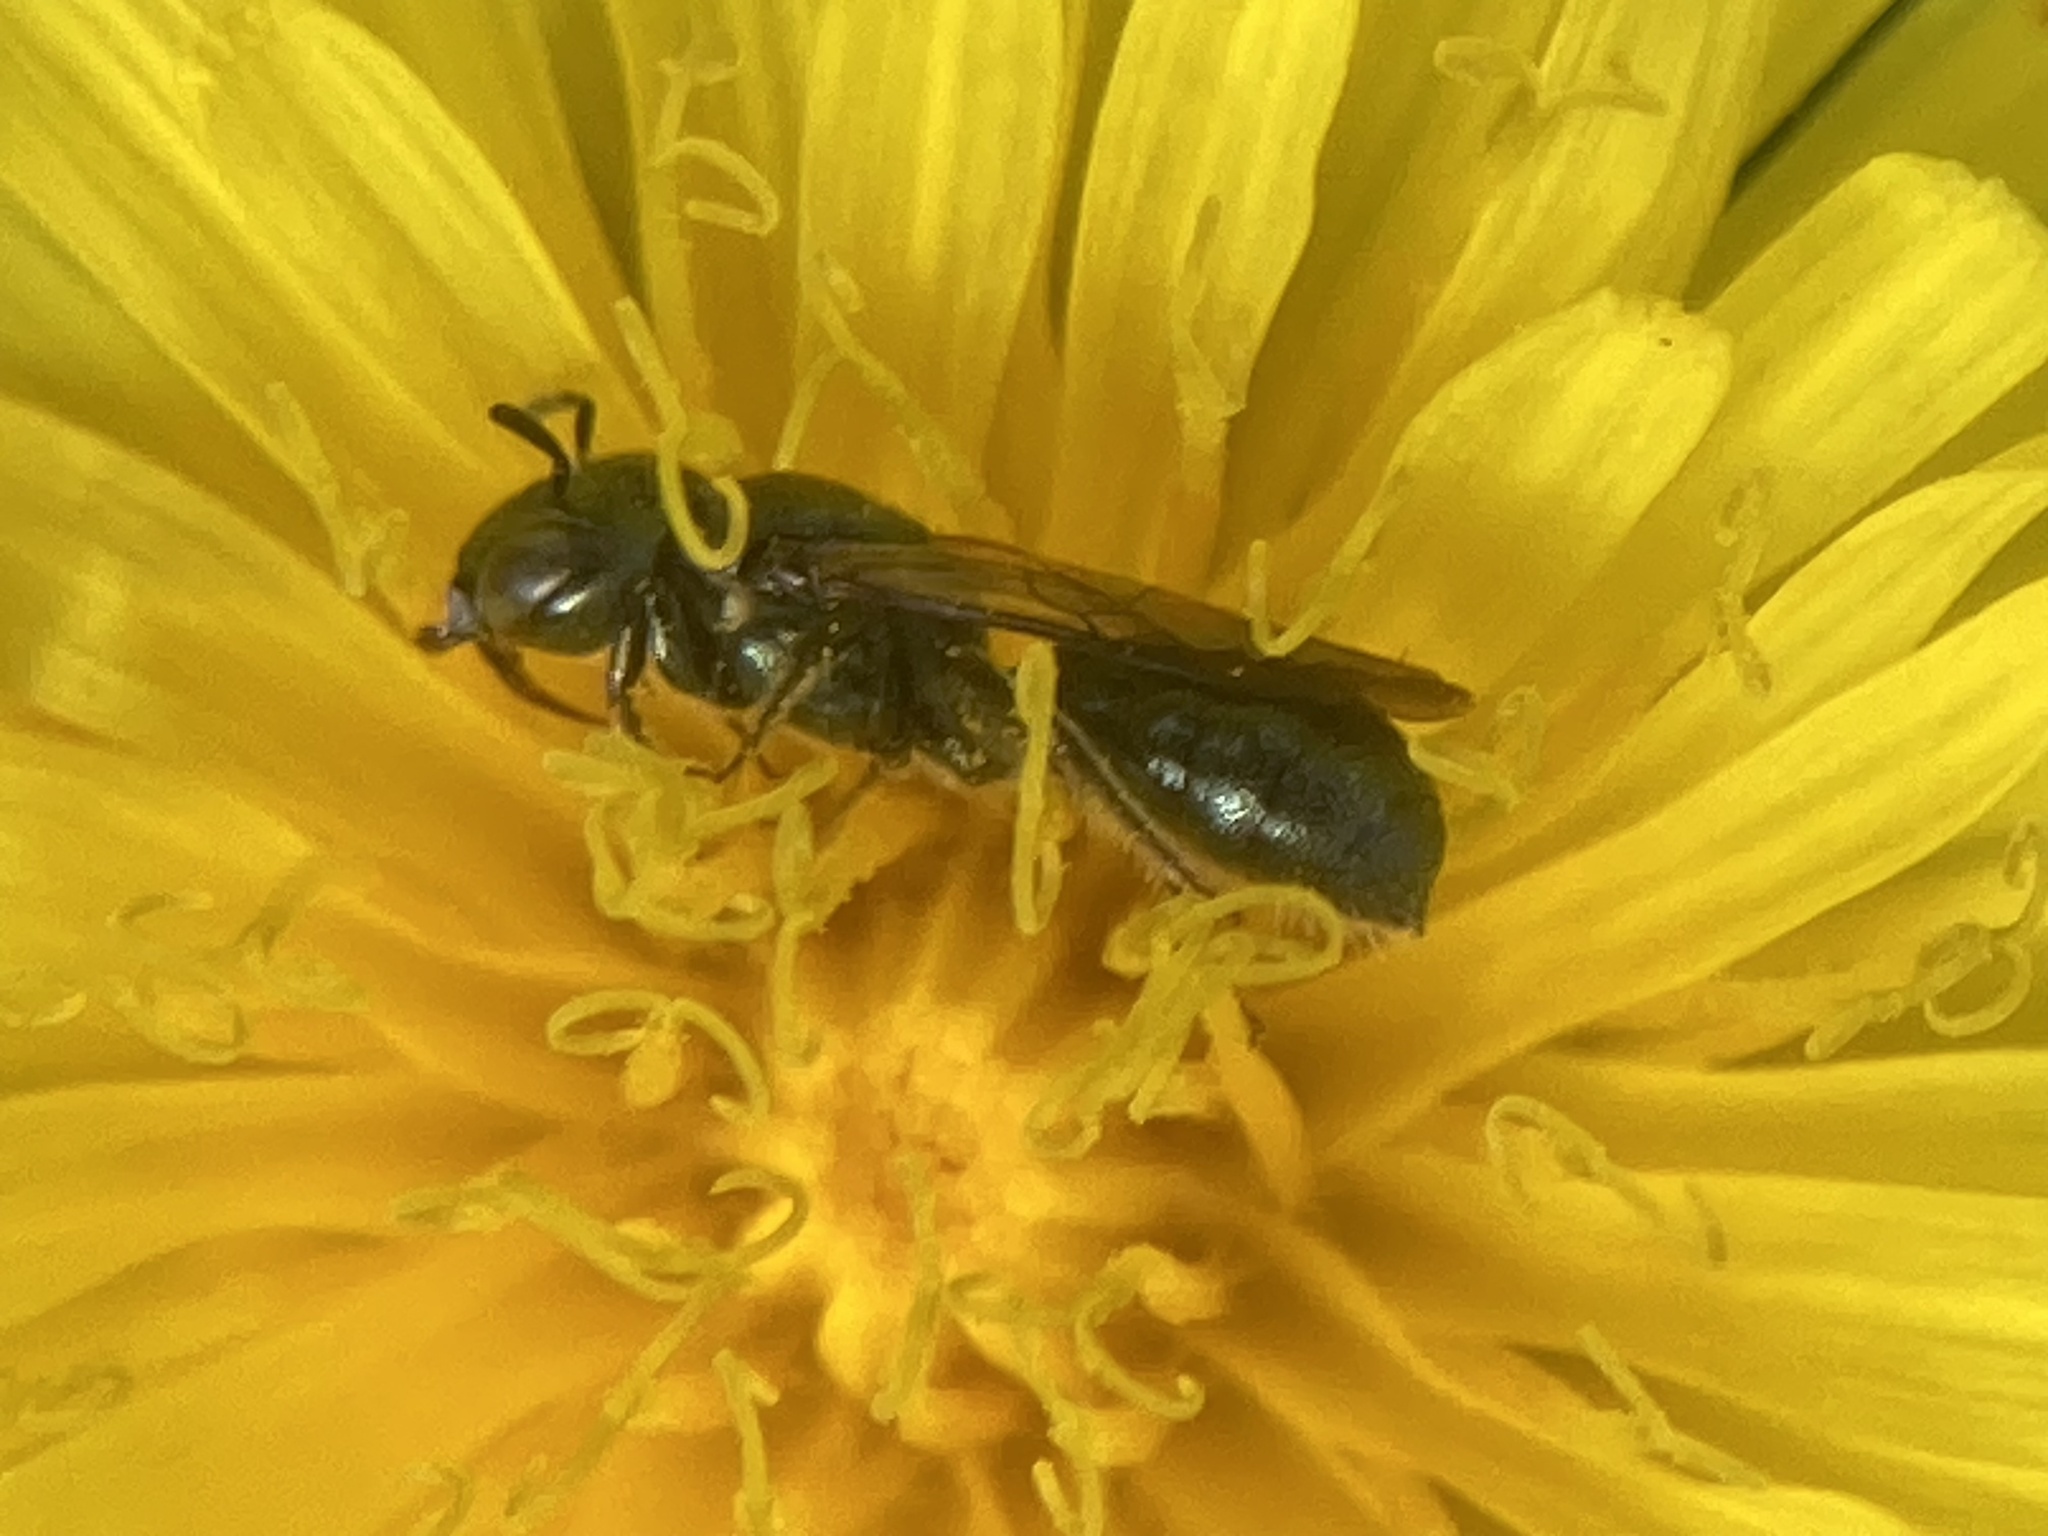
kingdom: Animalia
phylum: Arthropoda
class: Insecta
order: Hymenoptera
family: Apidae
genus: Zadontomerus
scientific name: Zadontomerus
